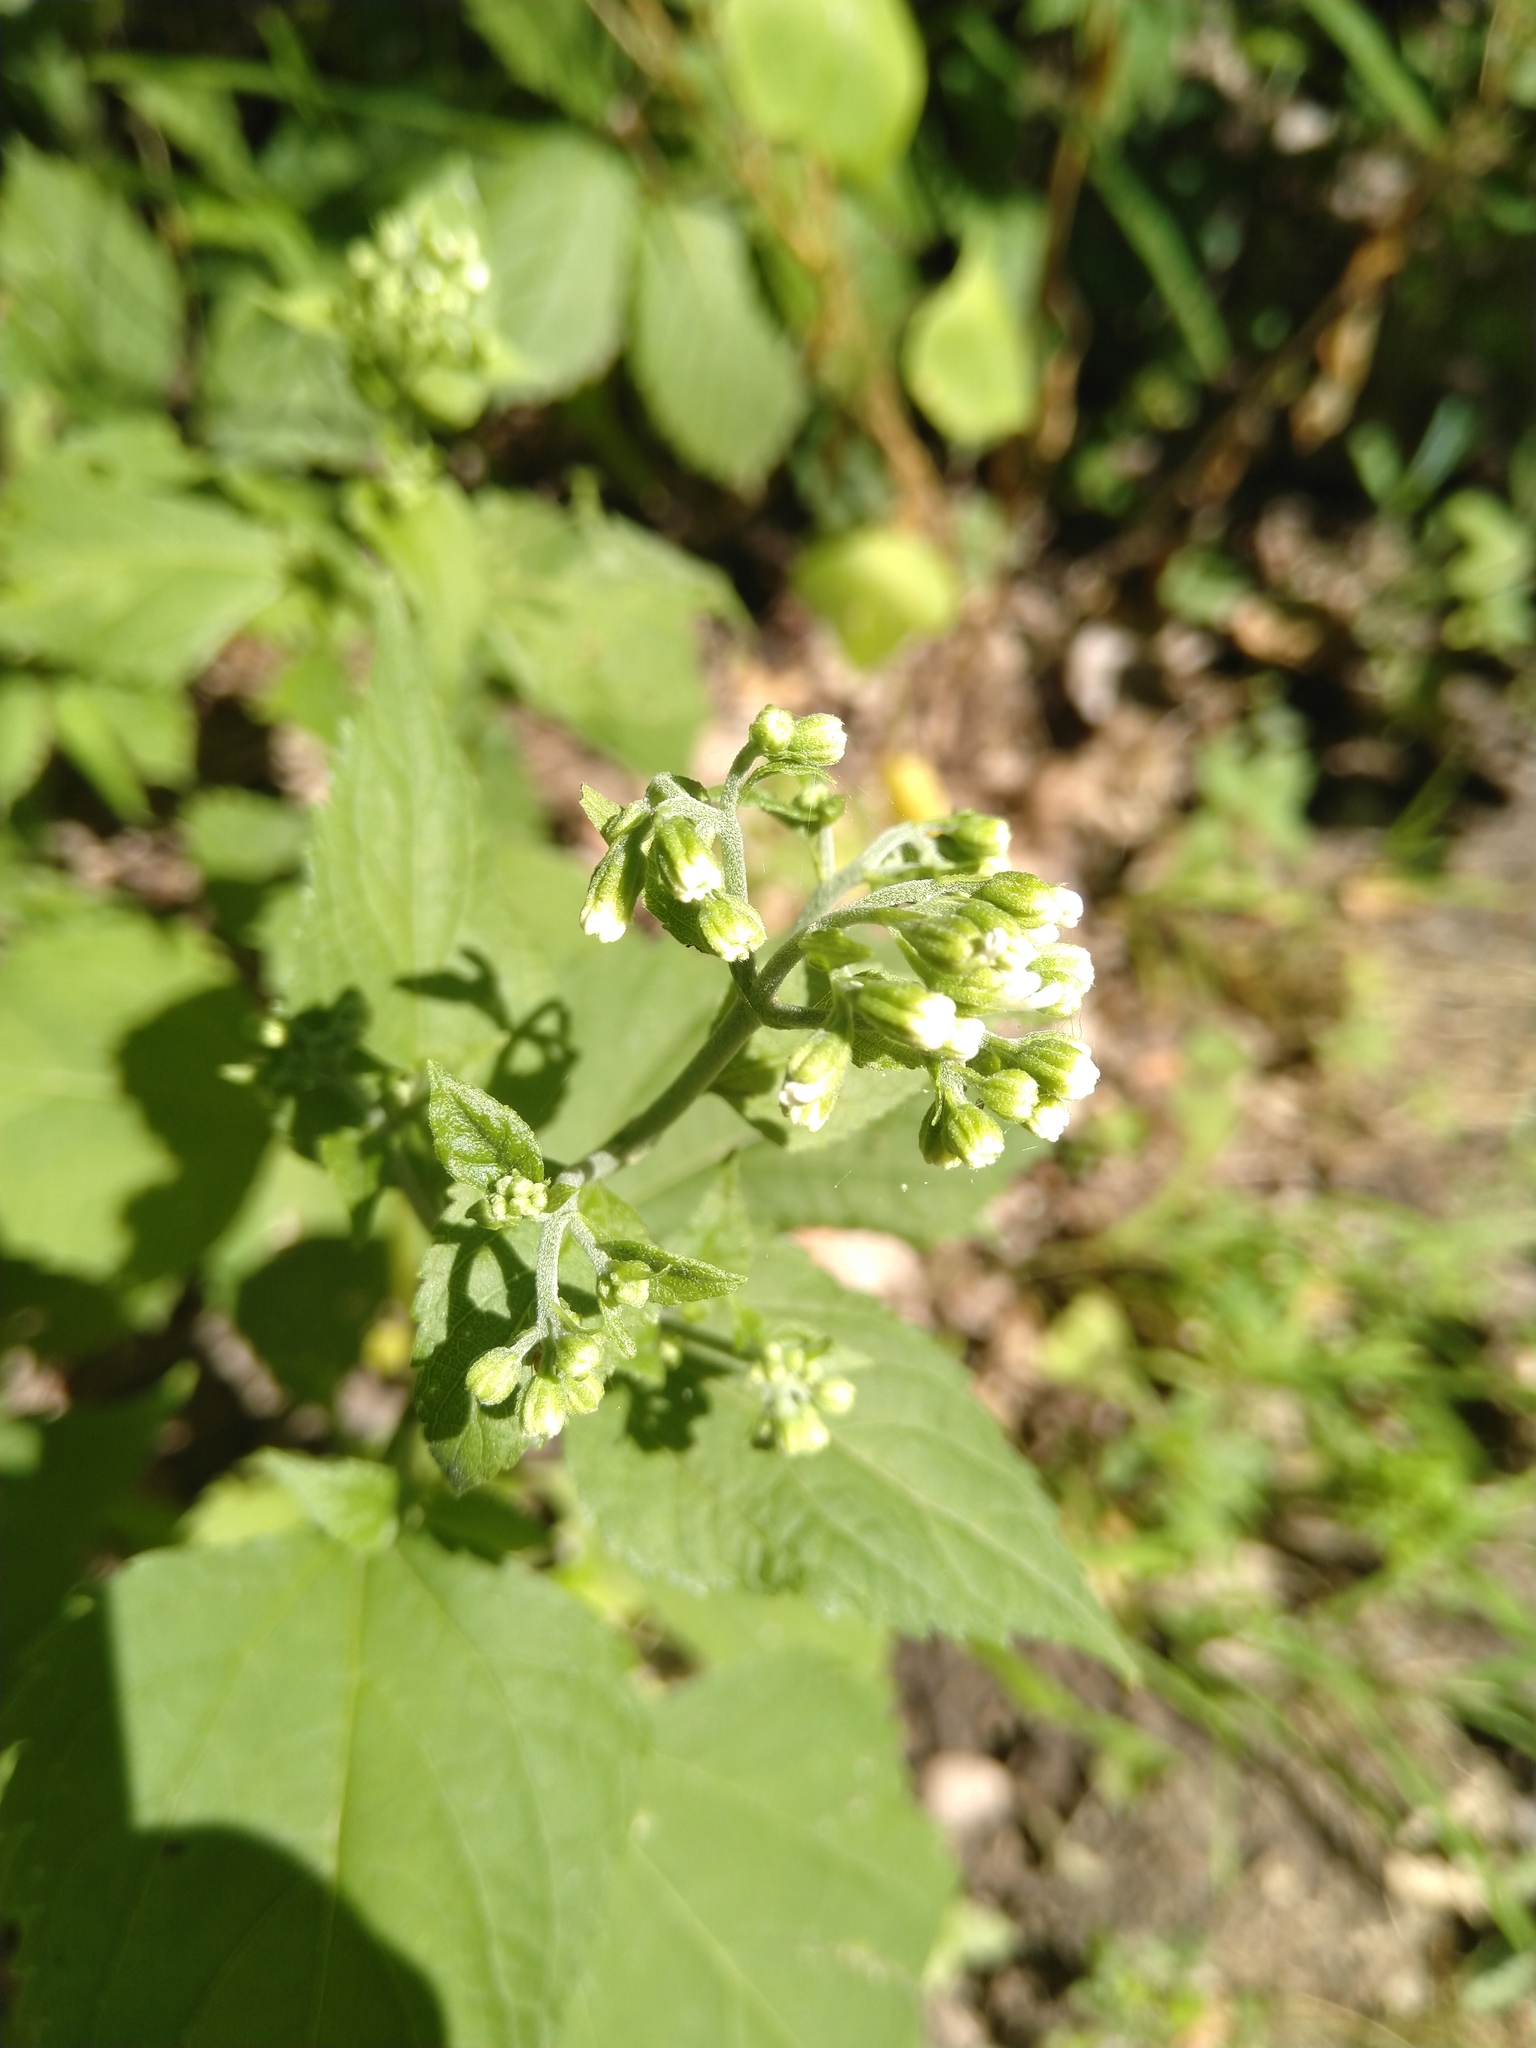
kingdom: Plantae
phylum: Tracheophyta
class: Magnoliopsida
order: Asterales
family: Asteraceae
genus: Ageratina
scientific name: Ageratina altissima
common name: White snakeroot
